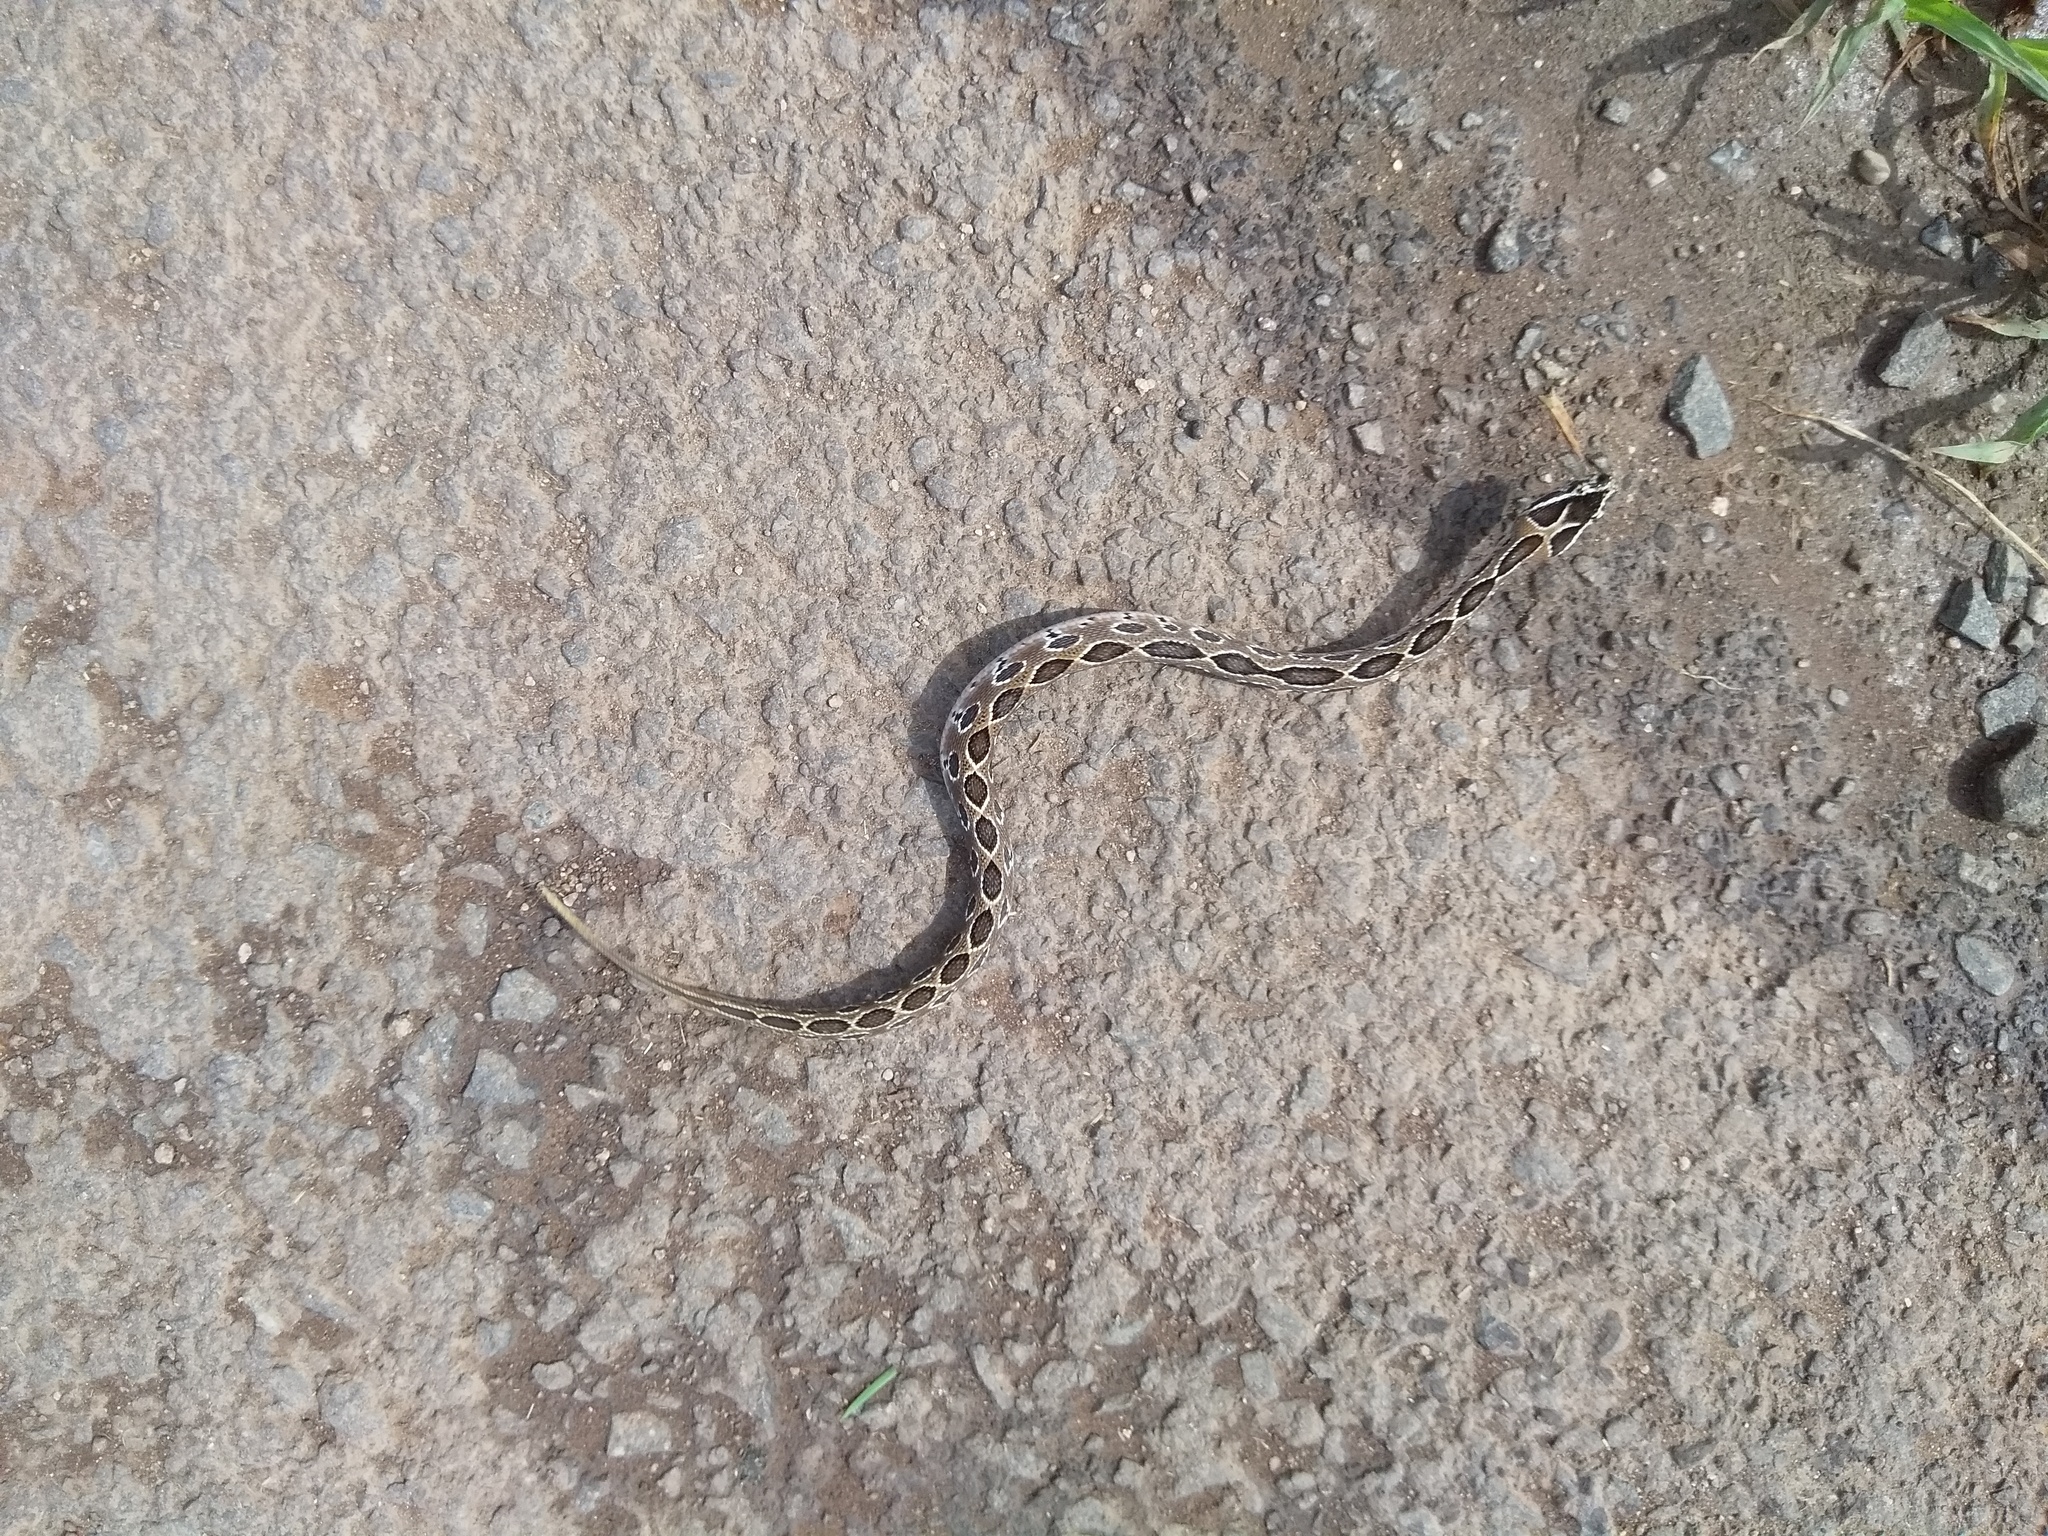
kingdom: Animalia
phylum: Chordata
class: Squamata
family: Viperidae
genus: Daboia
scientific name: Daboia russelii
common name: Western russel’s viper
